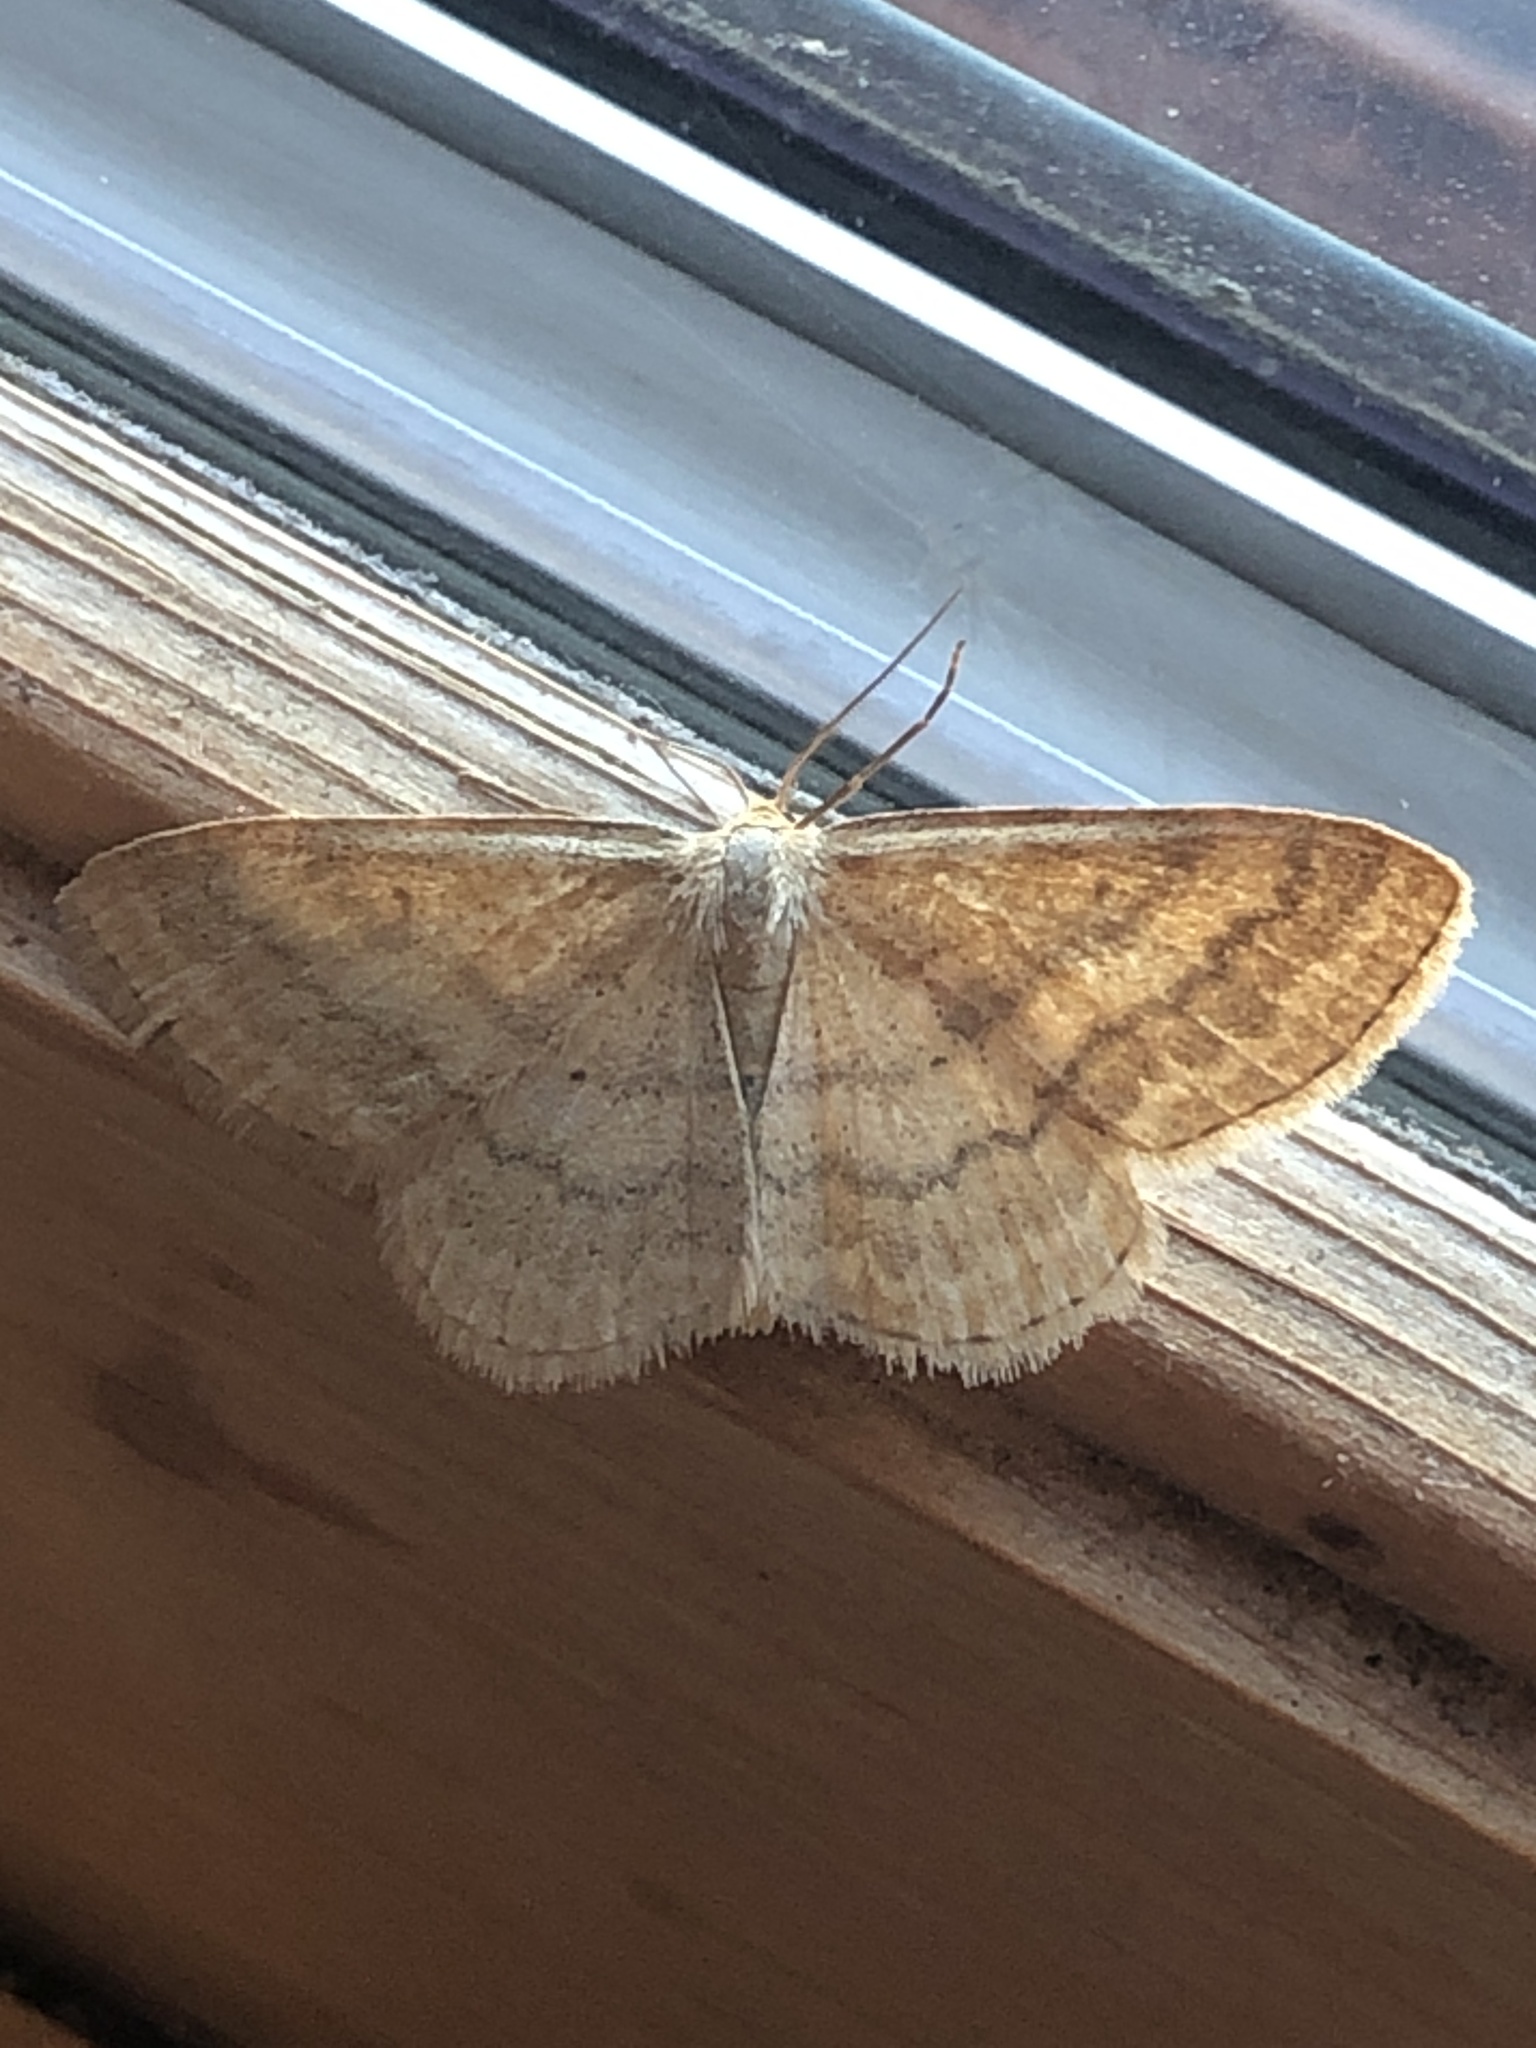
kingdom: Animalia
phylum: Arthropoda
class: Insecta
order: Lepidoptera
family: Geometridae
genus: Scopula
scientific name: Scopula inductata
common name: Soft-lined wave
